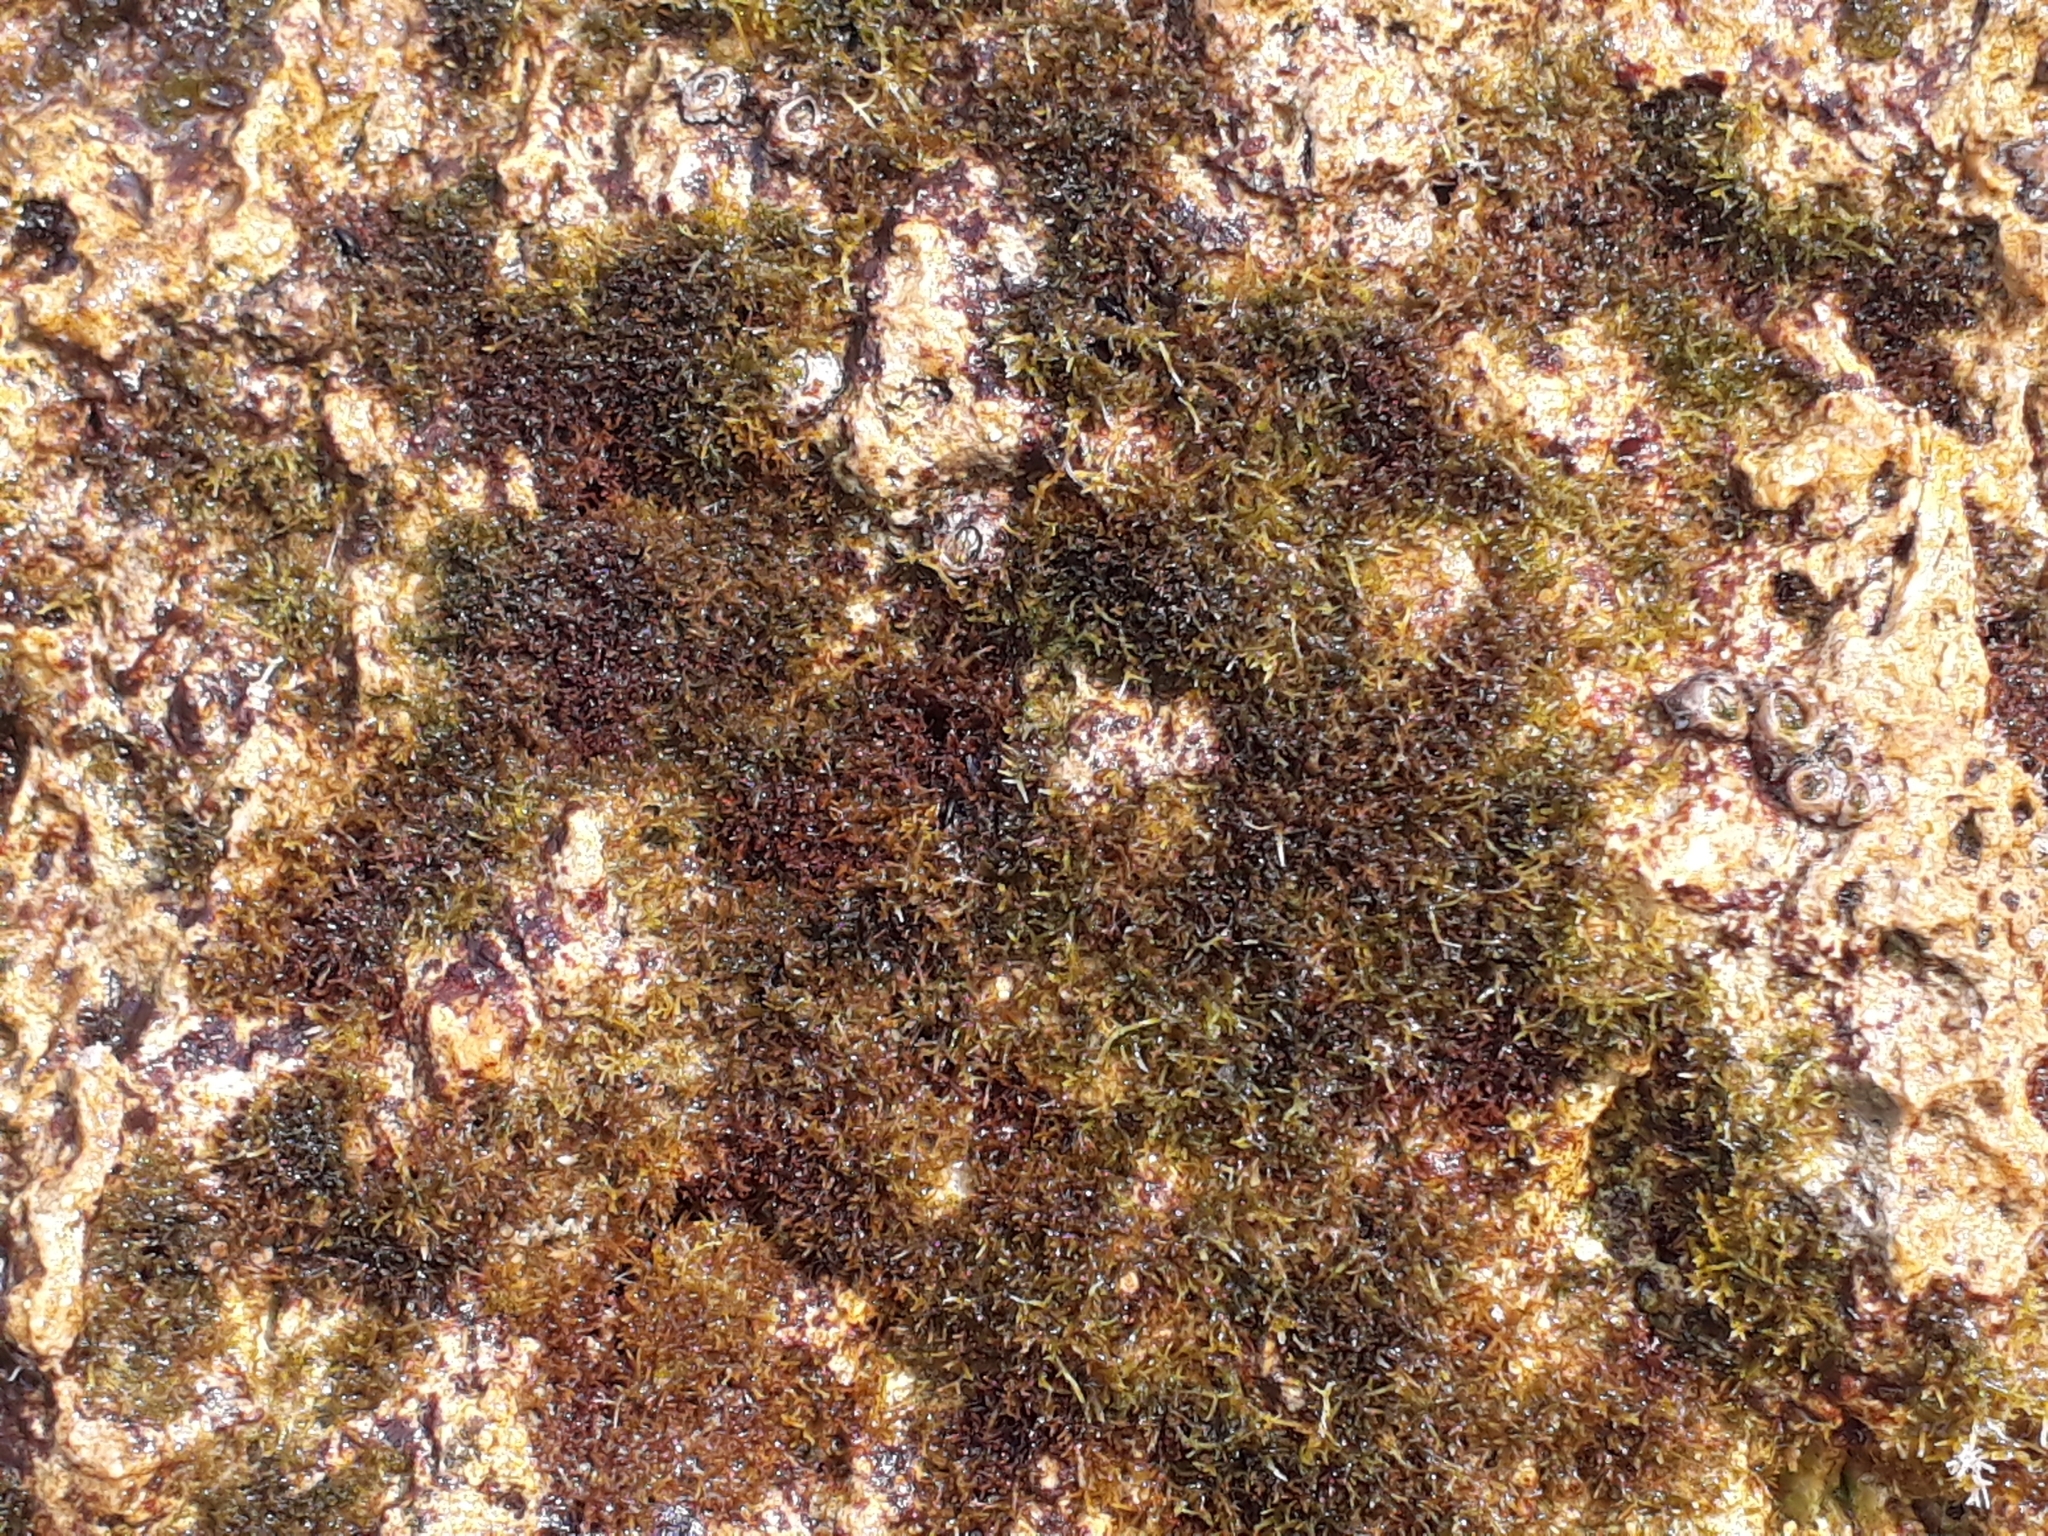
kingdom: Plantae
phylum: Rhodophyta
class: Florideophyceae
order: Gelidiales
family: Gelidiaceae
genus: Capreolia
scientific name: Capreolia implexa
